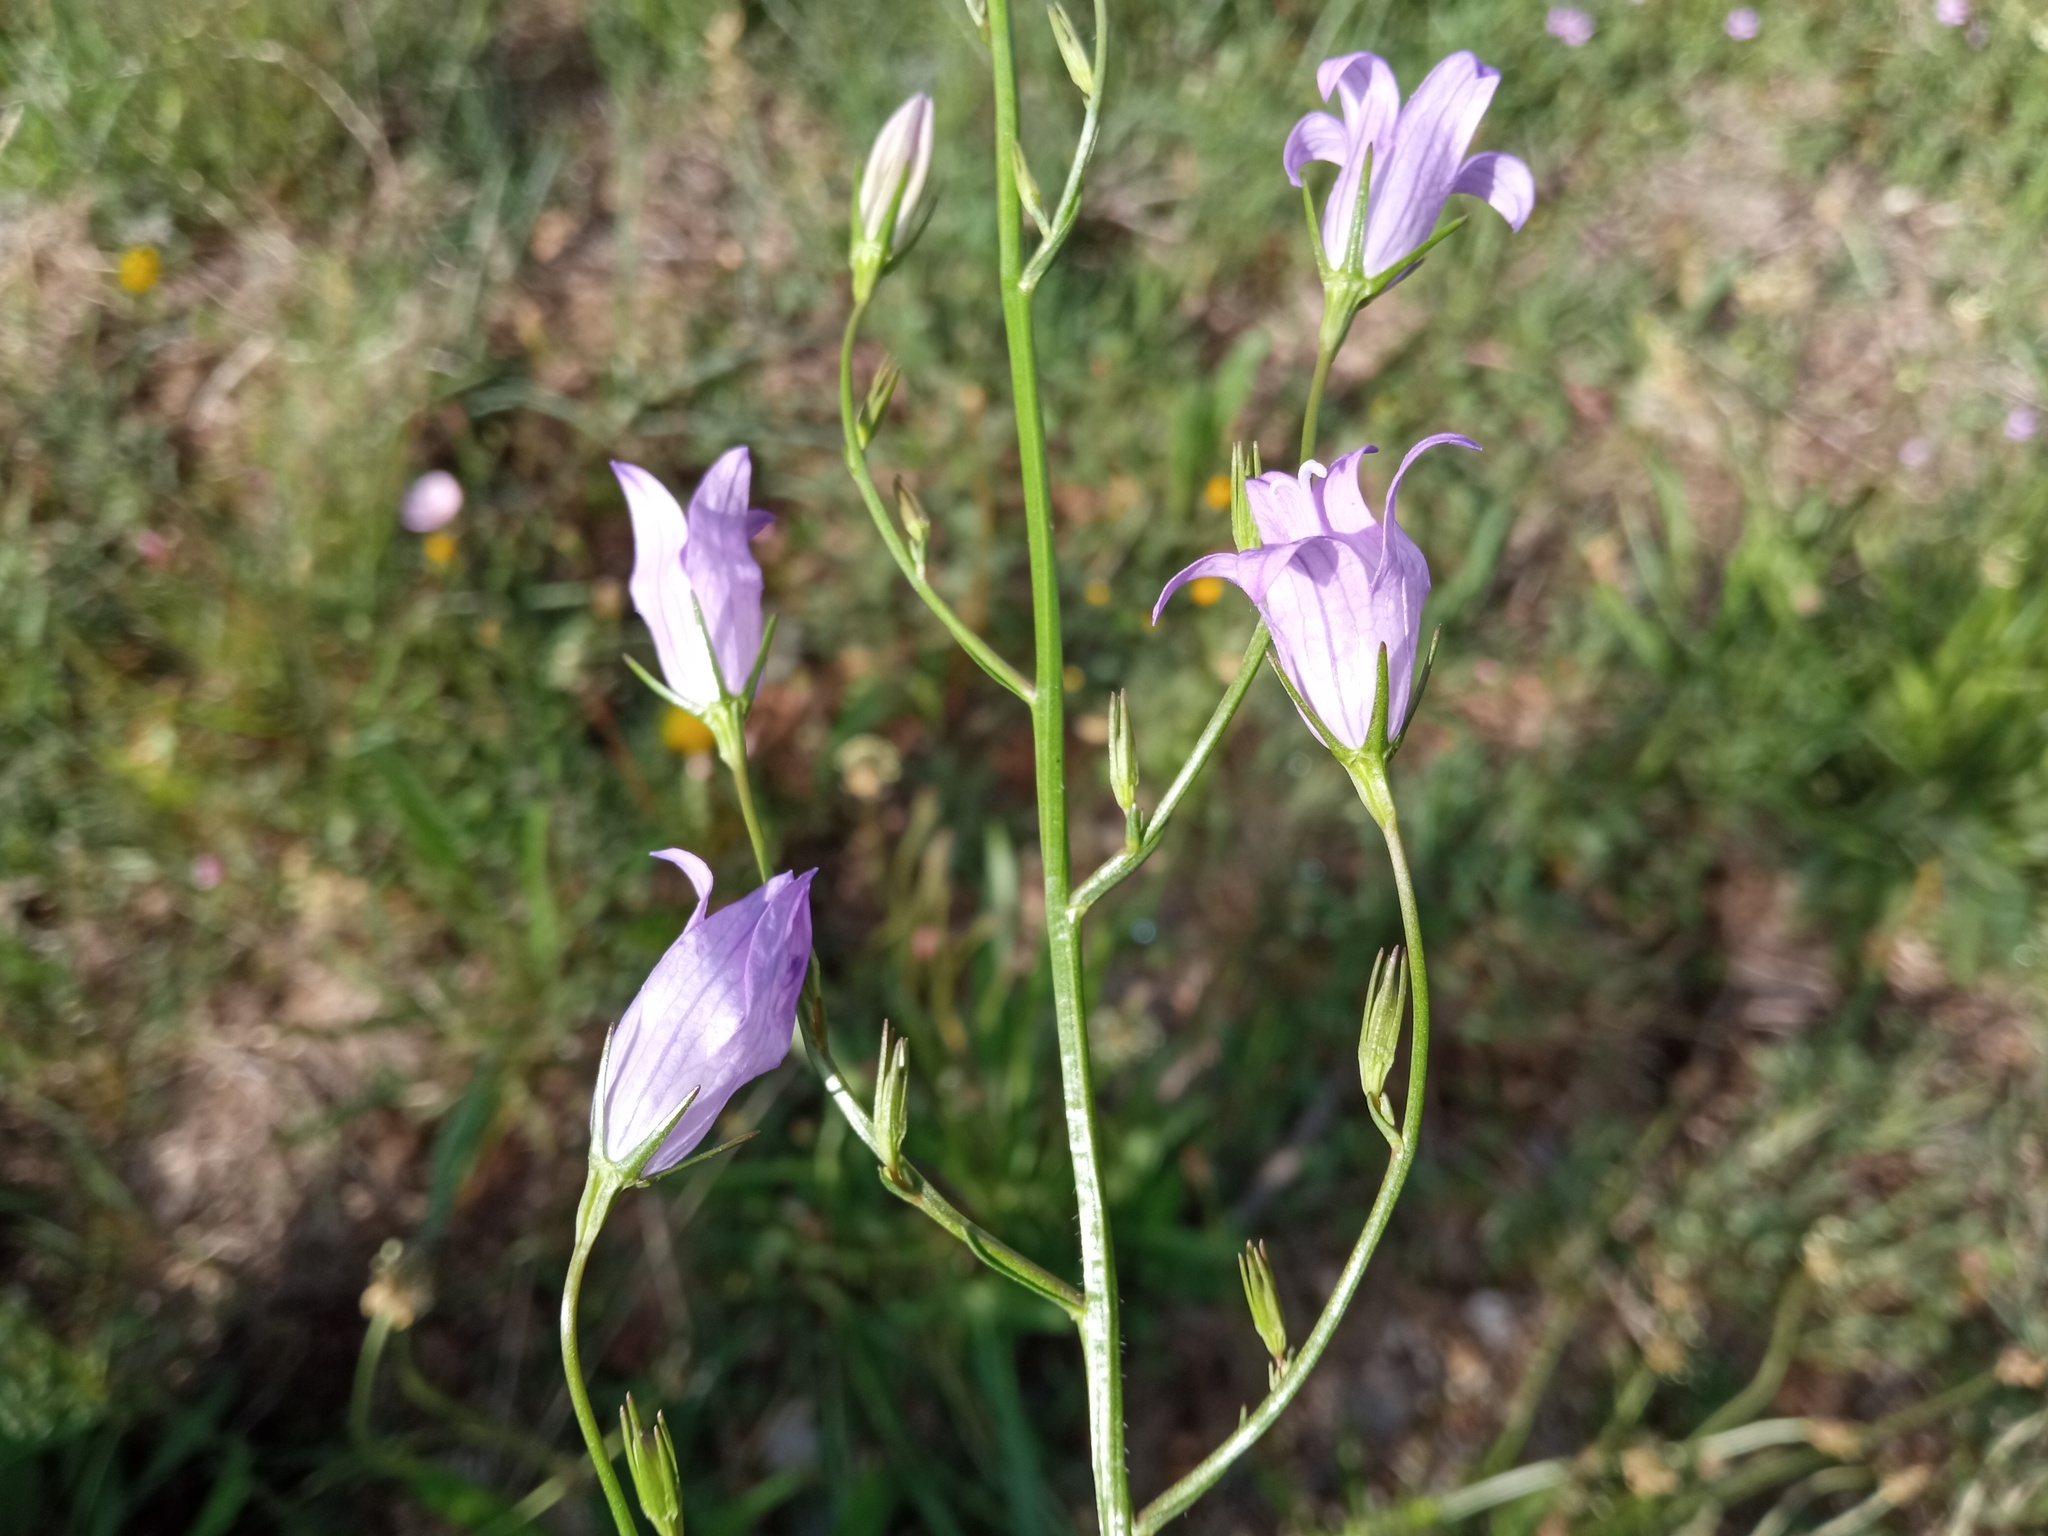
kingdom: Plantae
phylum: Tracheophyta
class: Magnoliopsida
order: Asterales
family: Campanulaceae
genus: Campanula
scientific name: Campanula rapunculus
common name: Rampion bellflower
